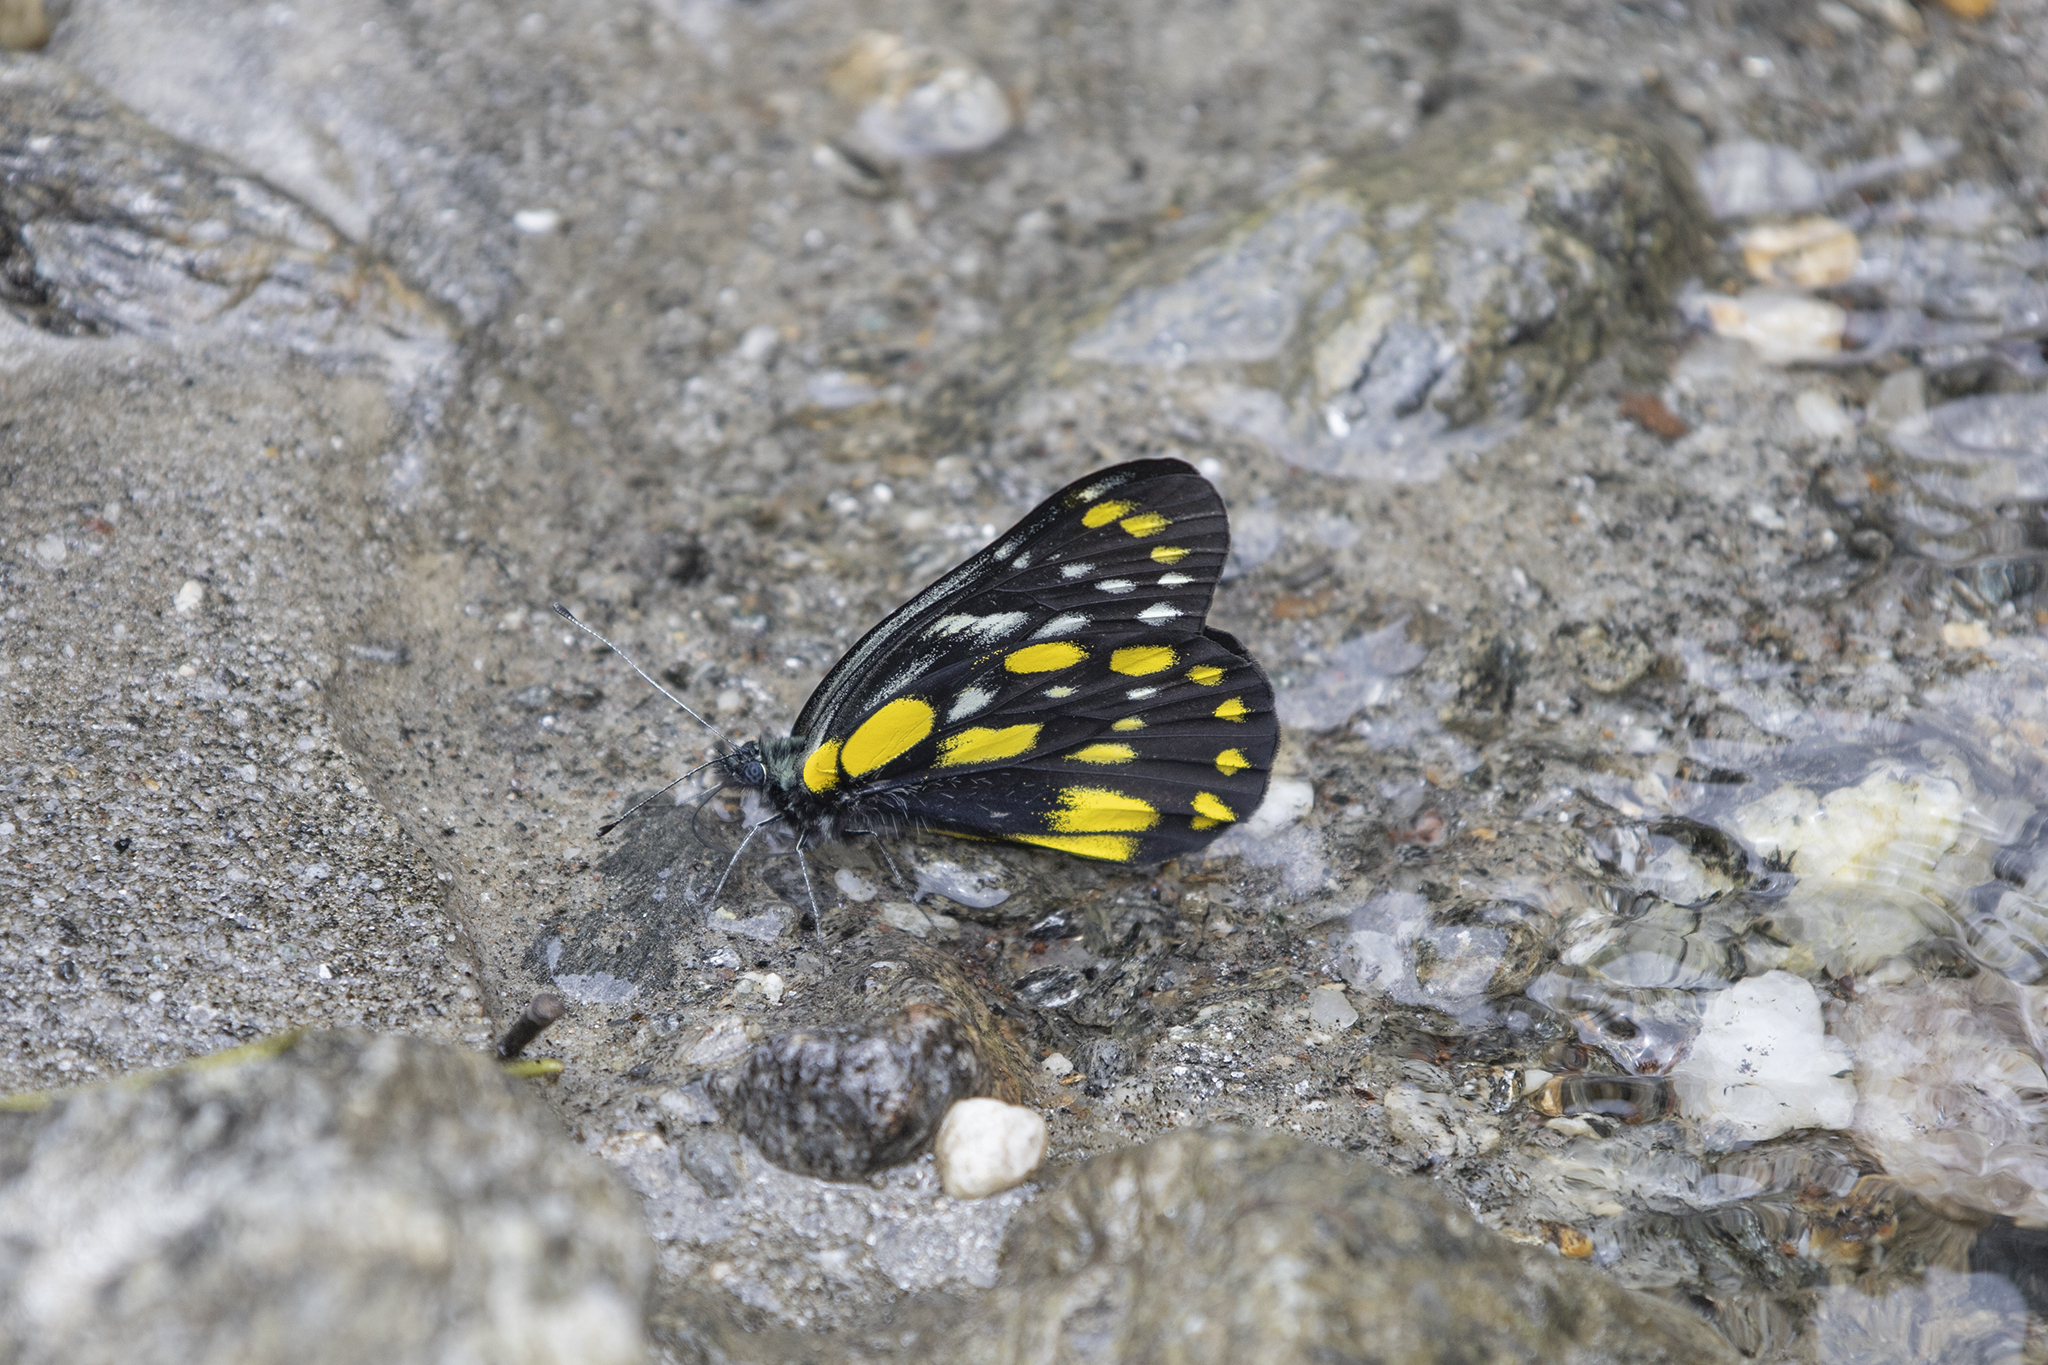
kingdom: Animalia
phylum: Arthropoda
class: Insecta
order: Lepidoptera
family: Pieridae
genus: Delias
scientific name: Delias belladonna
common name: Hill jezebel
